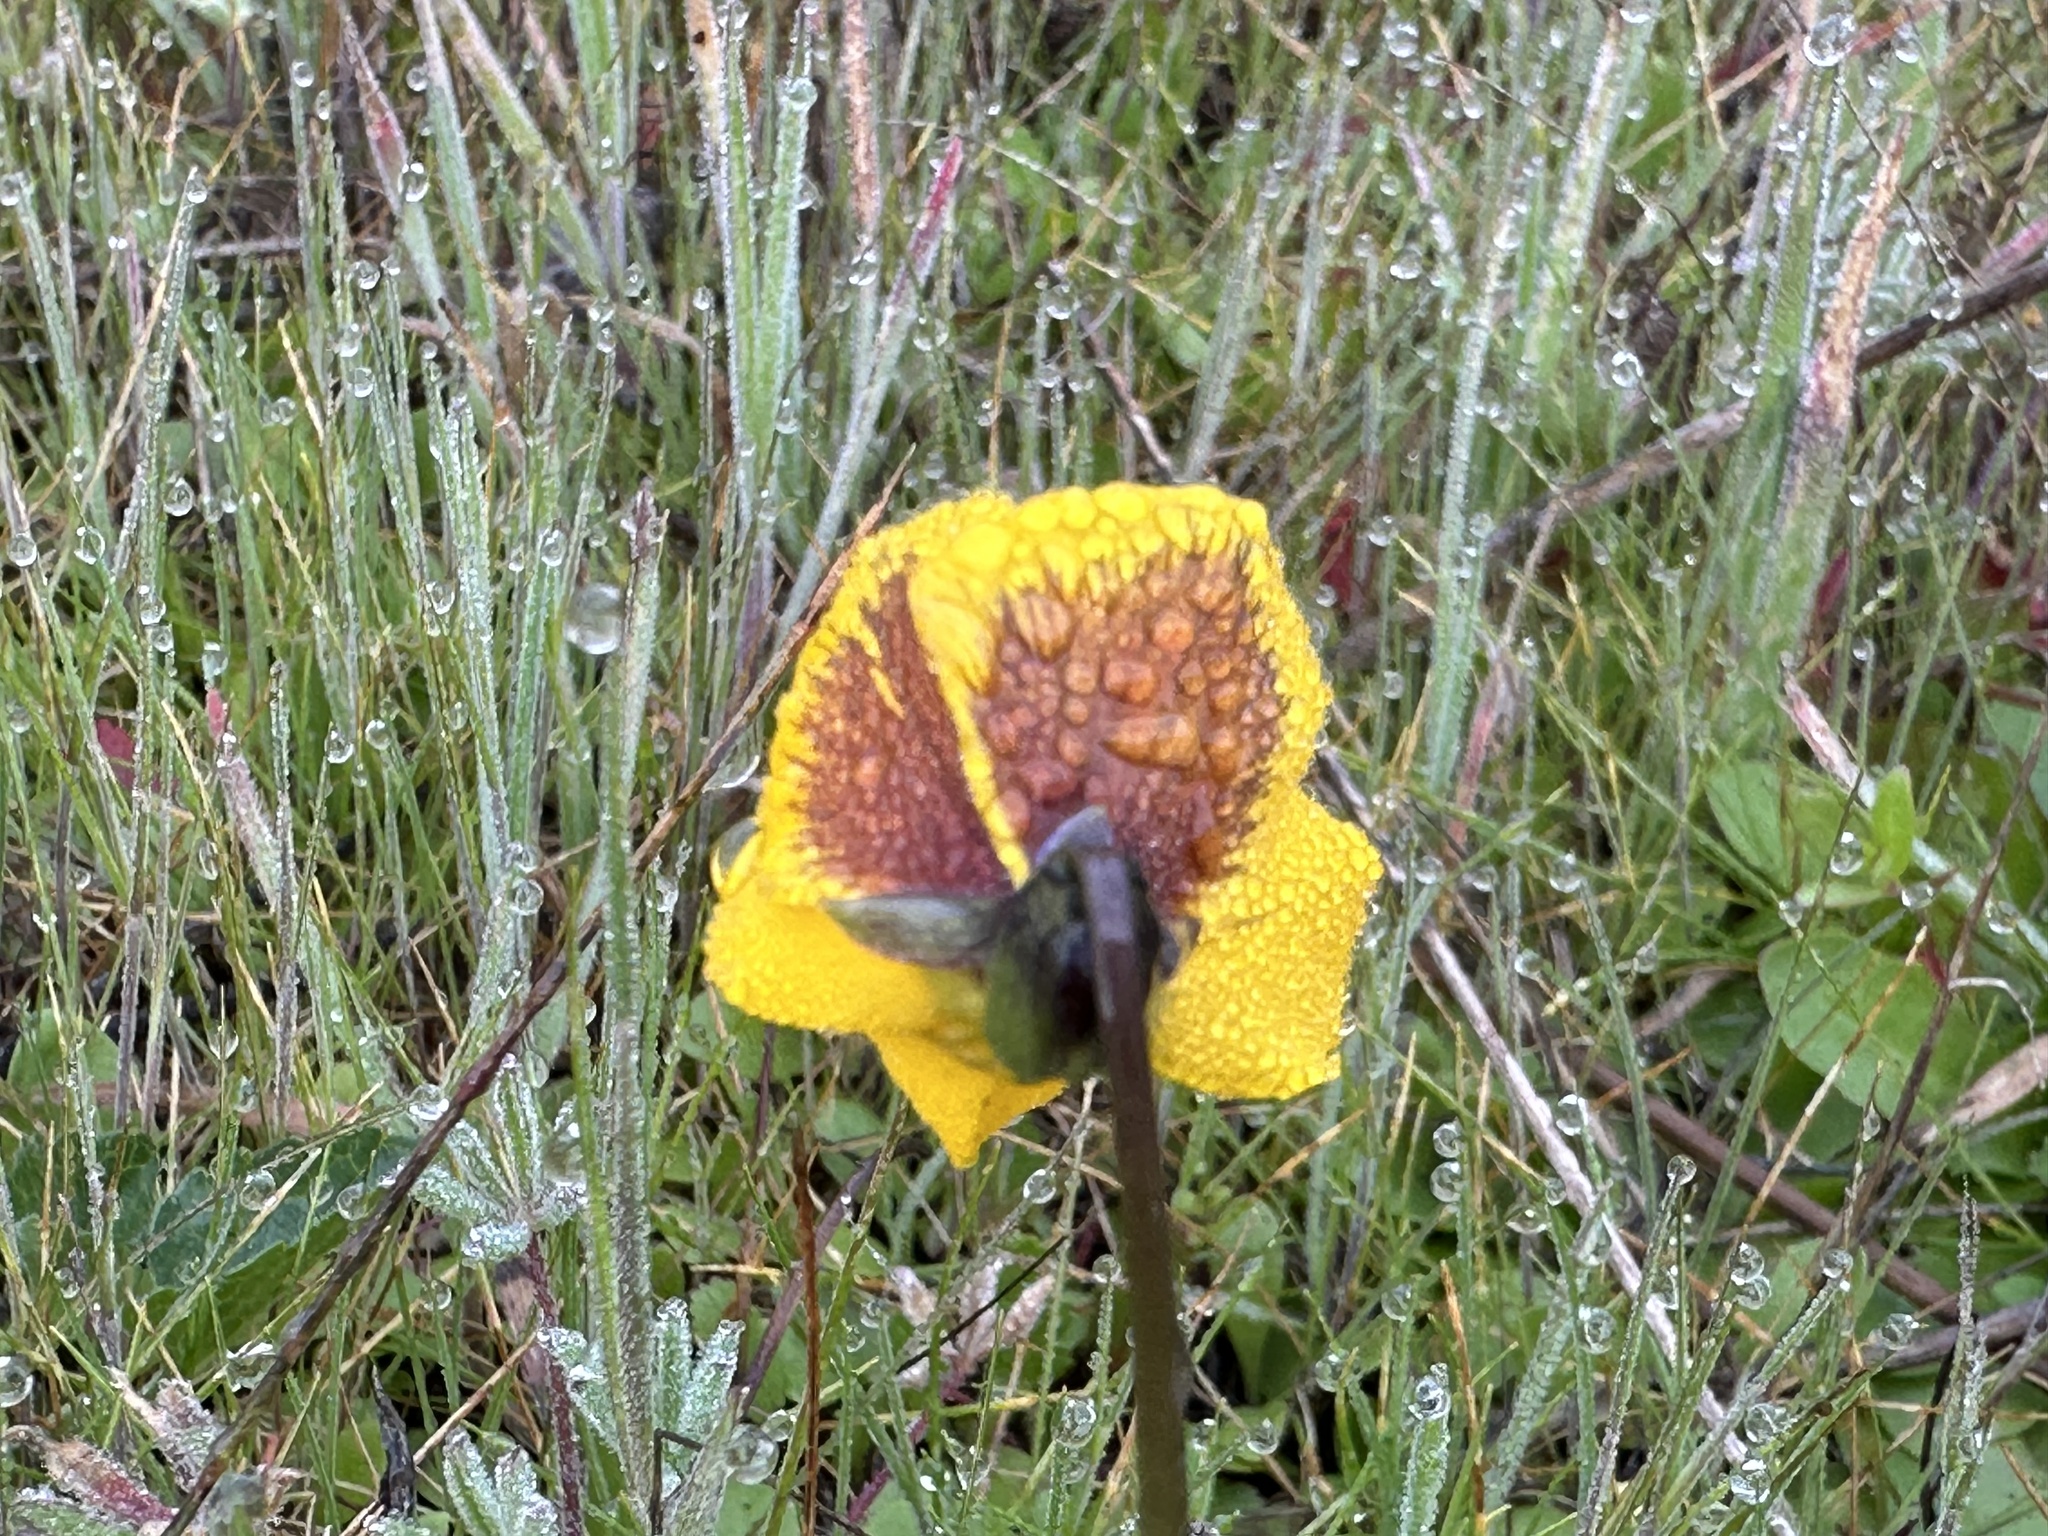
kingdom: Plantae
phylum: Tracheophyta
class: Magnoliopsida
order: Malpighiales
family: Violaceae
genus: Viola
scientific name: Viola pedunculata
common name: California golden violet
